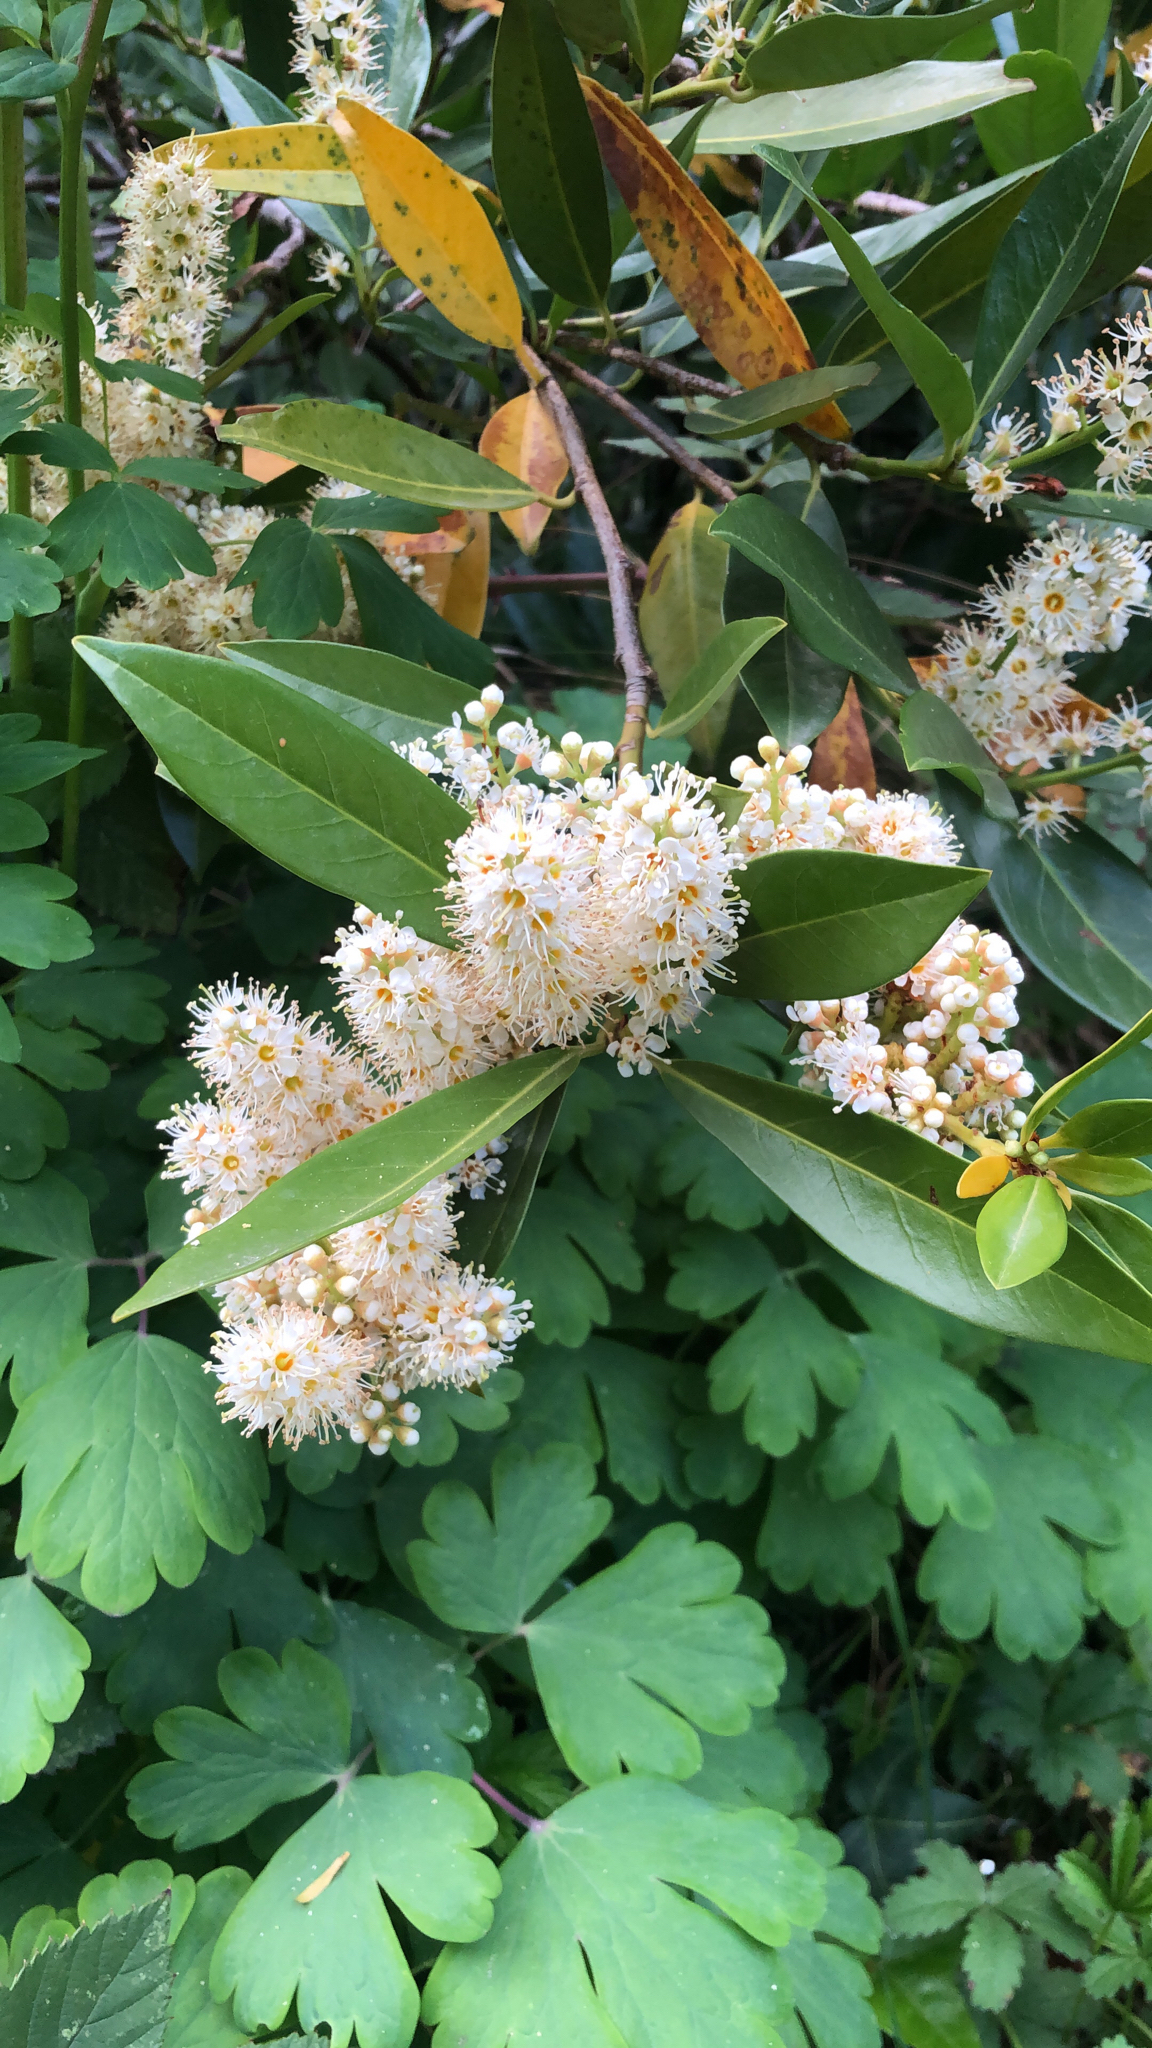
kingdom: Plantae
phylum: Tracheophyta
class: Magnoliopsida
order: Rosales
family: Rosaceae
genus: Prunus
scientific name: Prunus laurocerasus
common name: Cherry laurel
